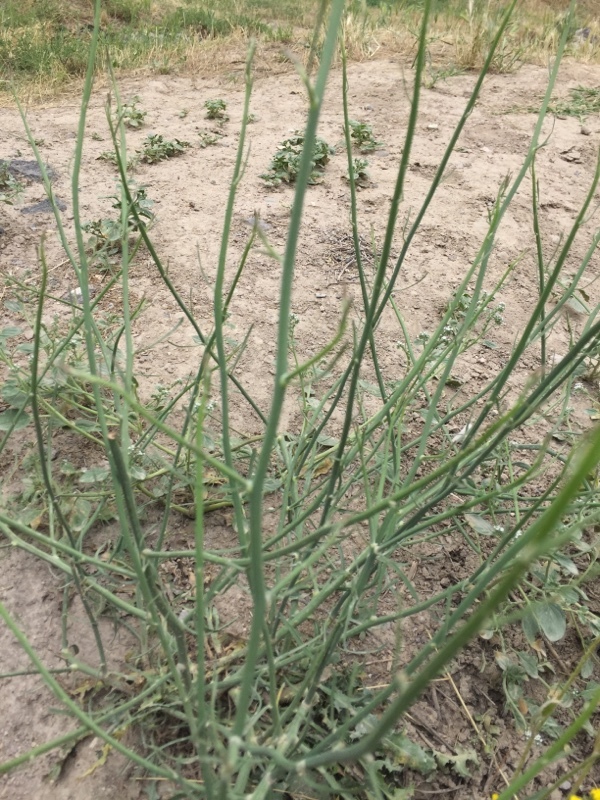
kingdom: Plantae
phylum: Tracheophyta
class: Magnoliopsida
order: Asterales
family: Asteraceae
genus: Chondrilla
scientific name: Chondrilla juncea
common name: Skeleton weed
